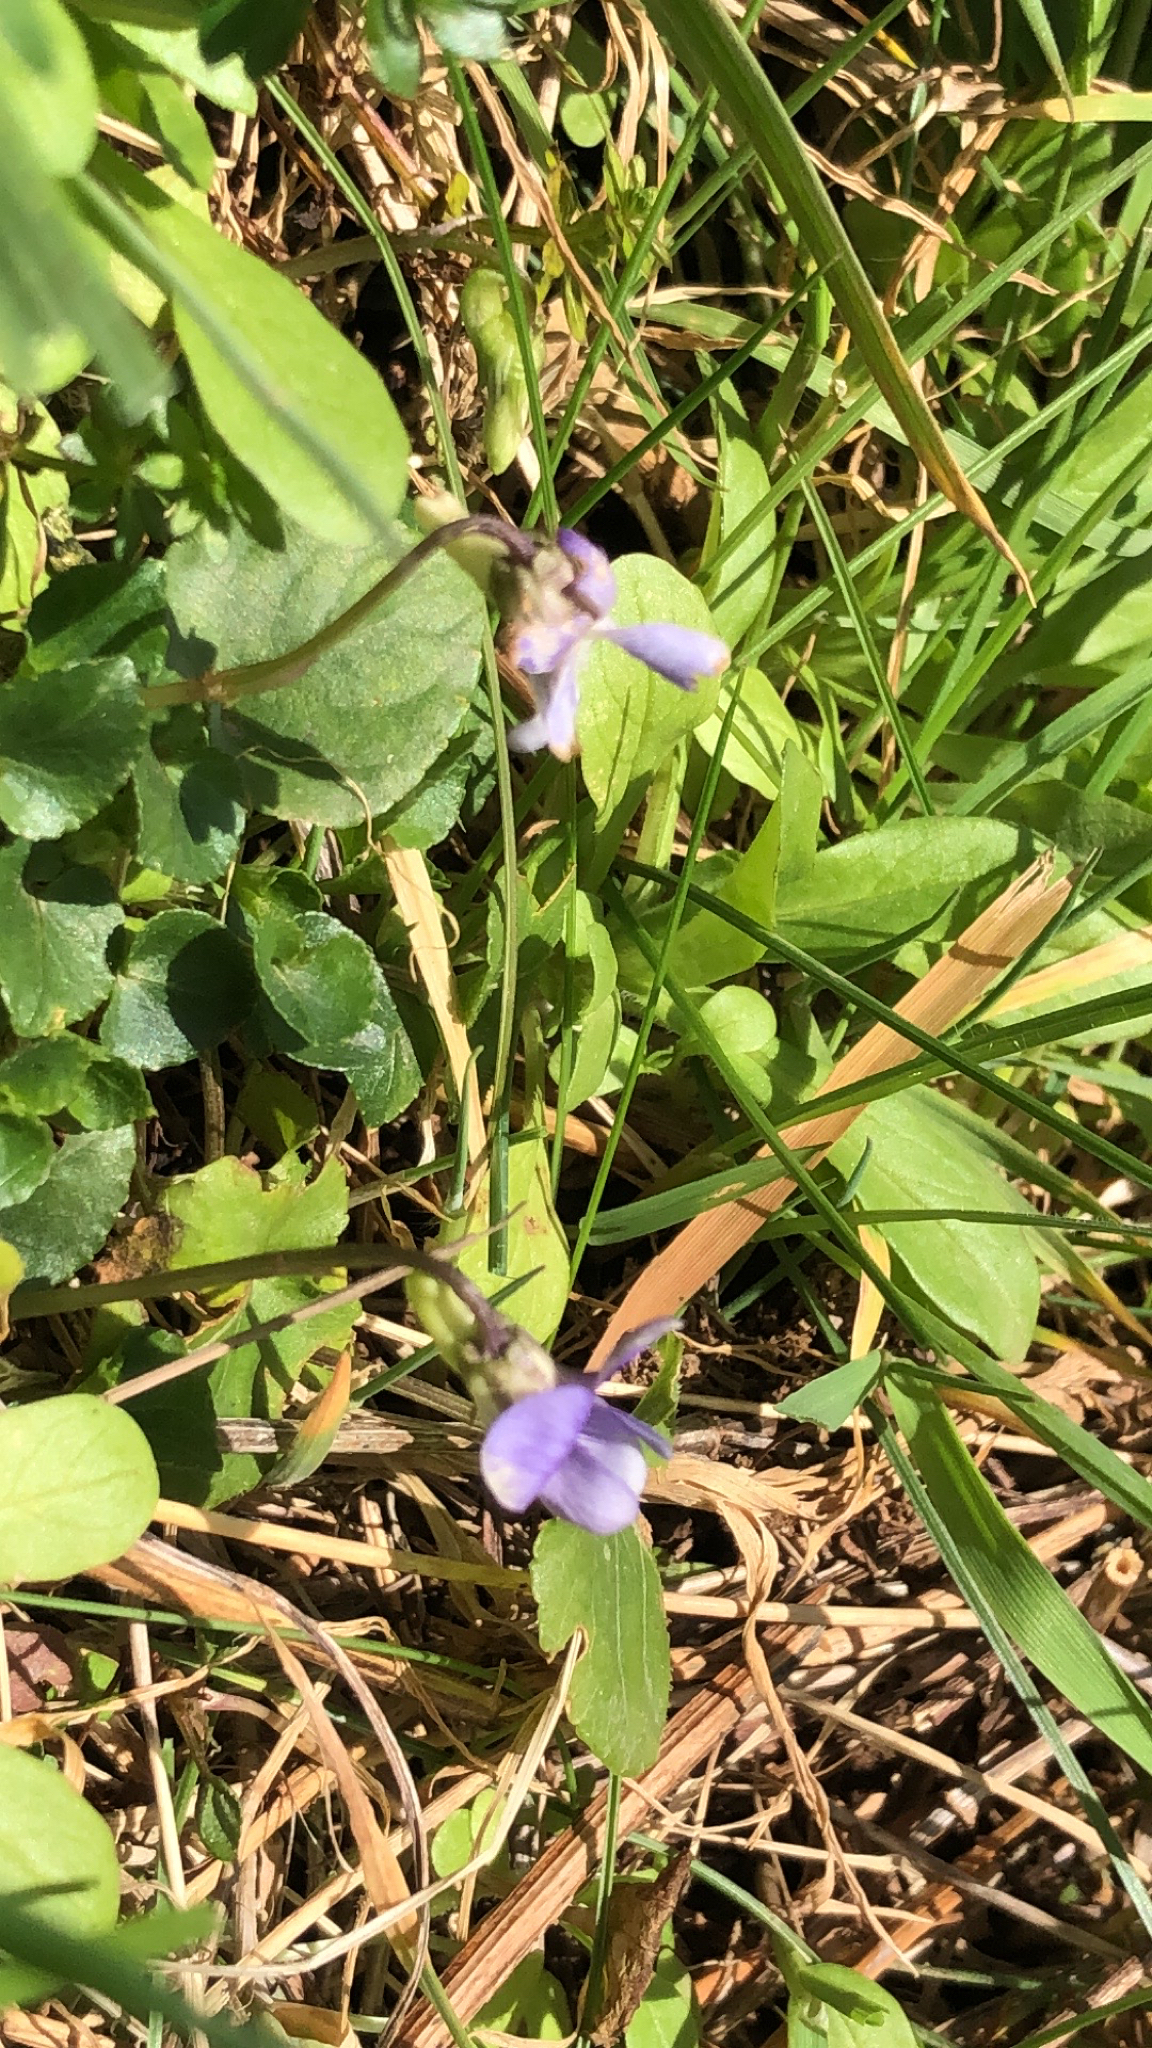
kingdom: Plantae
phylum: Tracheophyta
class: Magnoliopsida
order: Malpighiales
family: Violaceae
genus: Viola
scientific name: Viola riviniana
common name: Common dog-violet
